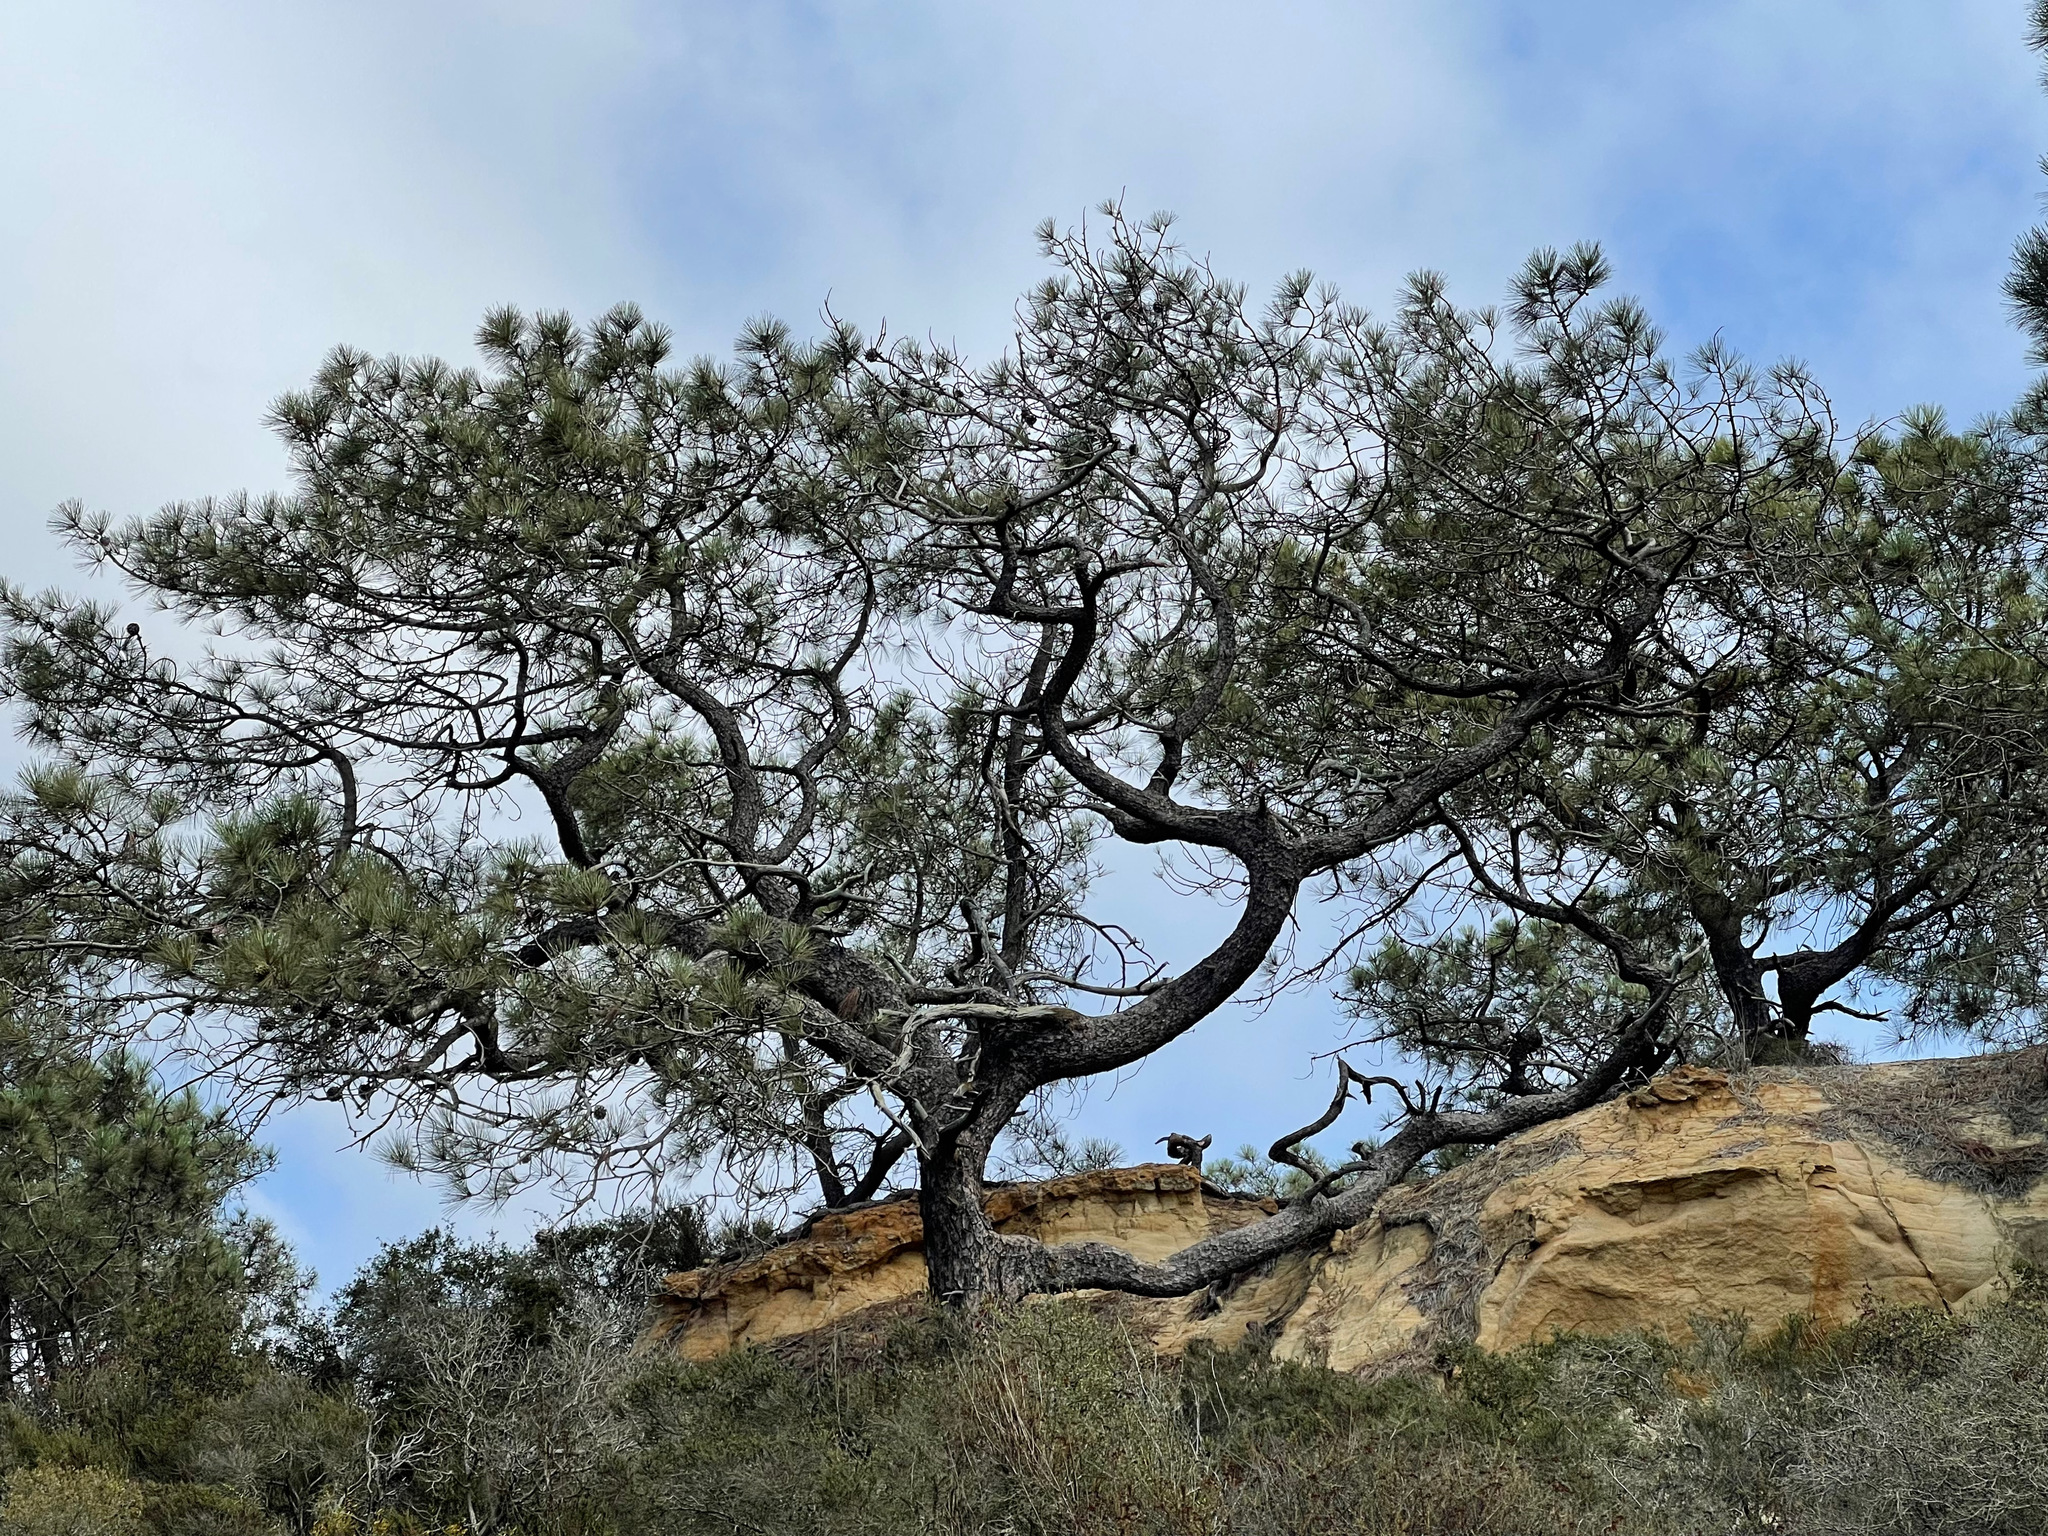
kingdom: Plantae
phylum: Tracheophyta
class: Pinopsida
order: Pinales
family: Pinaceae
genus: Pinus
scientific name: Pinus torreyana
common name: Torrey pine
